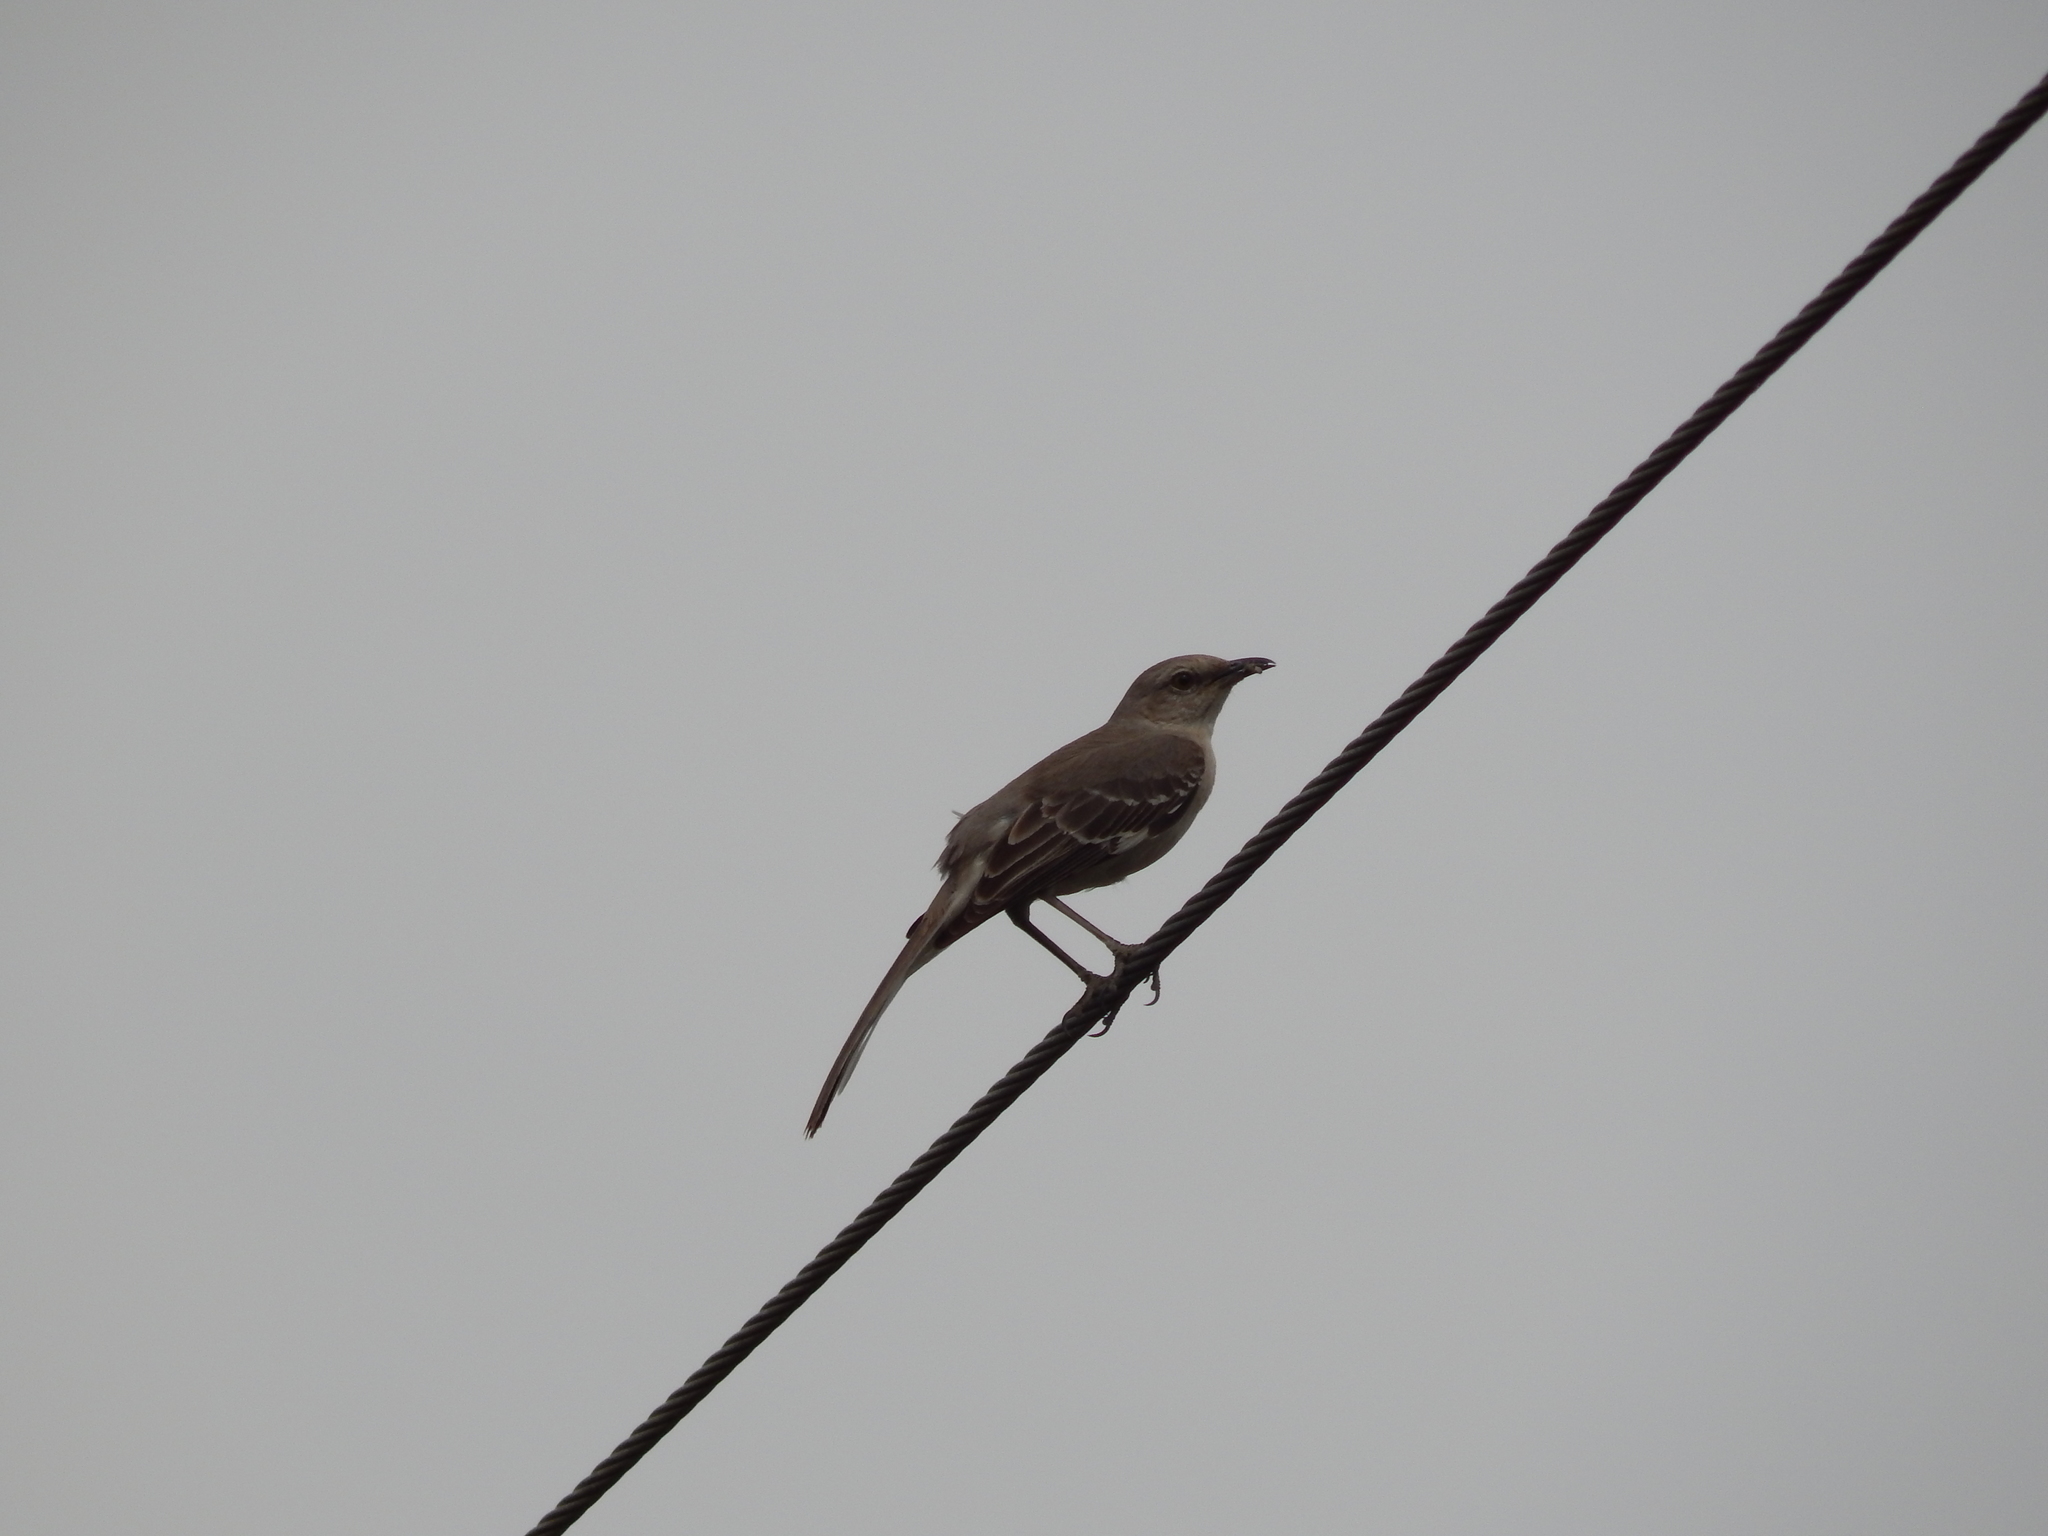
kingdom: Animalia
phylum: Chordata
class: Aves
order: Passeriformes
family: Mimidae
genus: Mimus
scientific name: Mimus polyglottos
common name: Northern mockingbird
